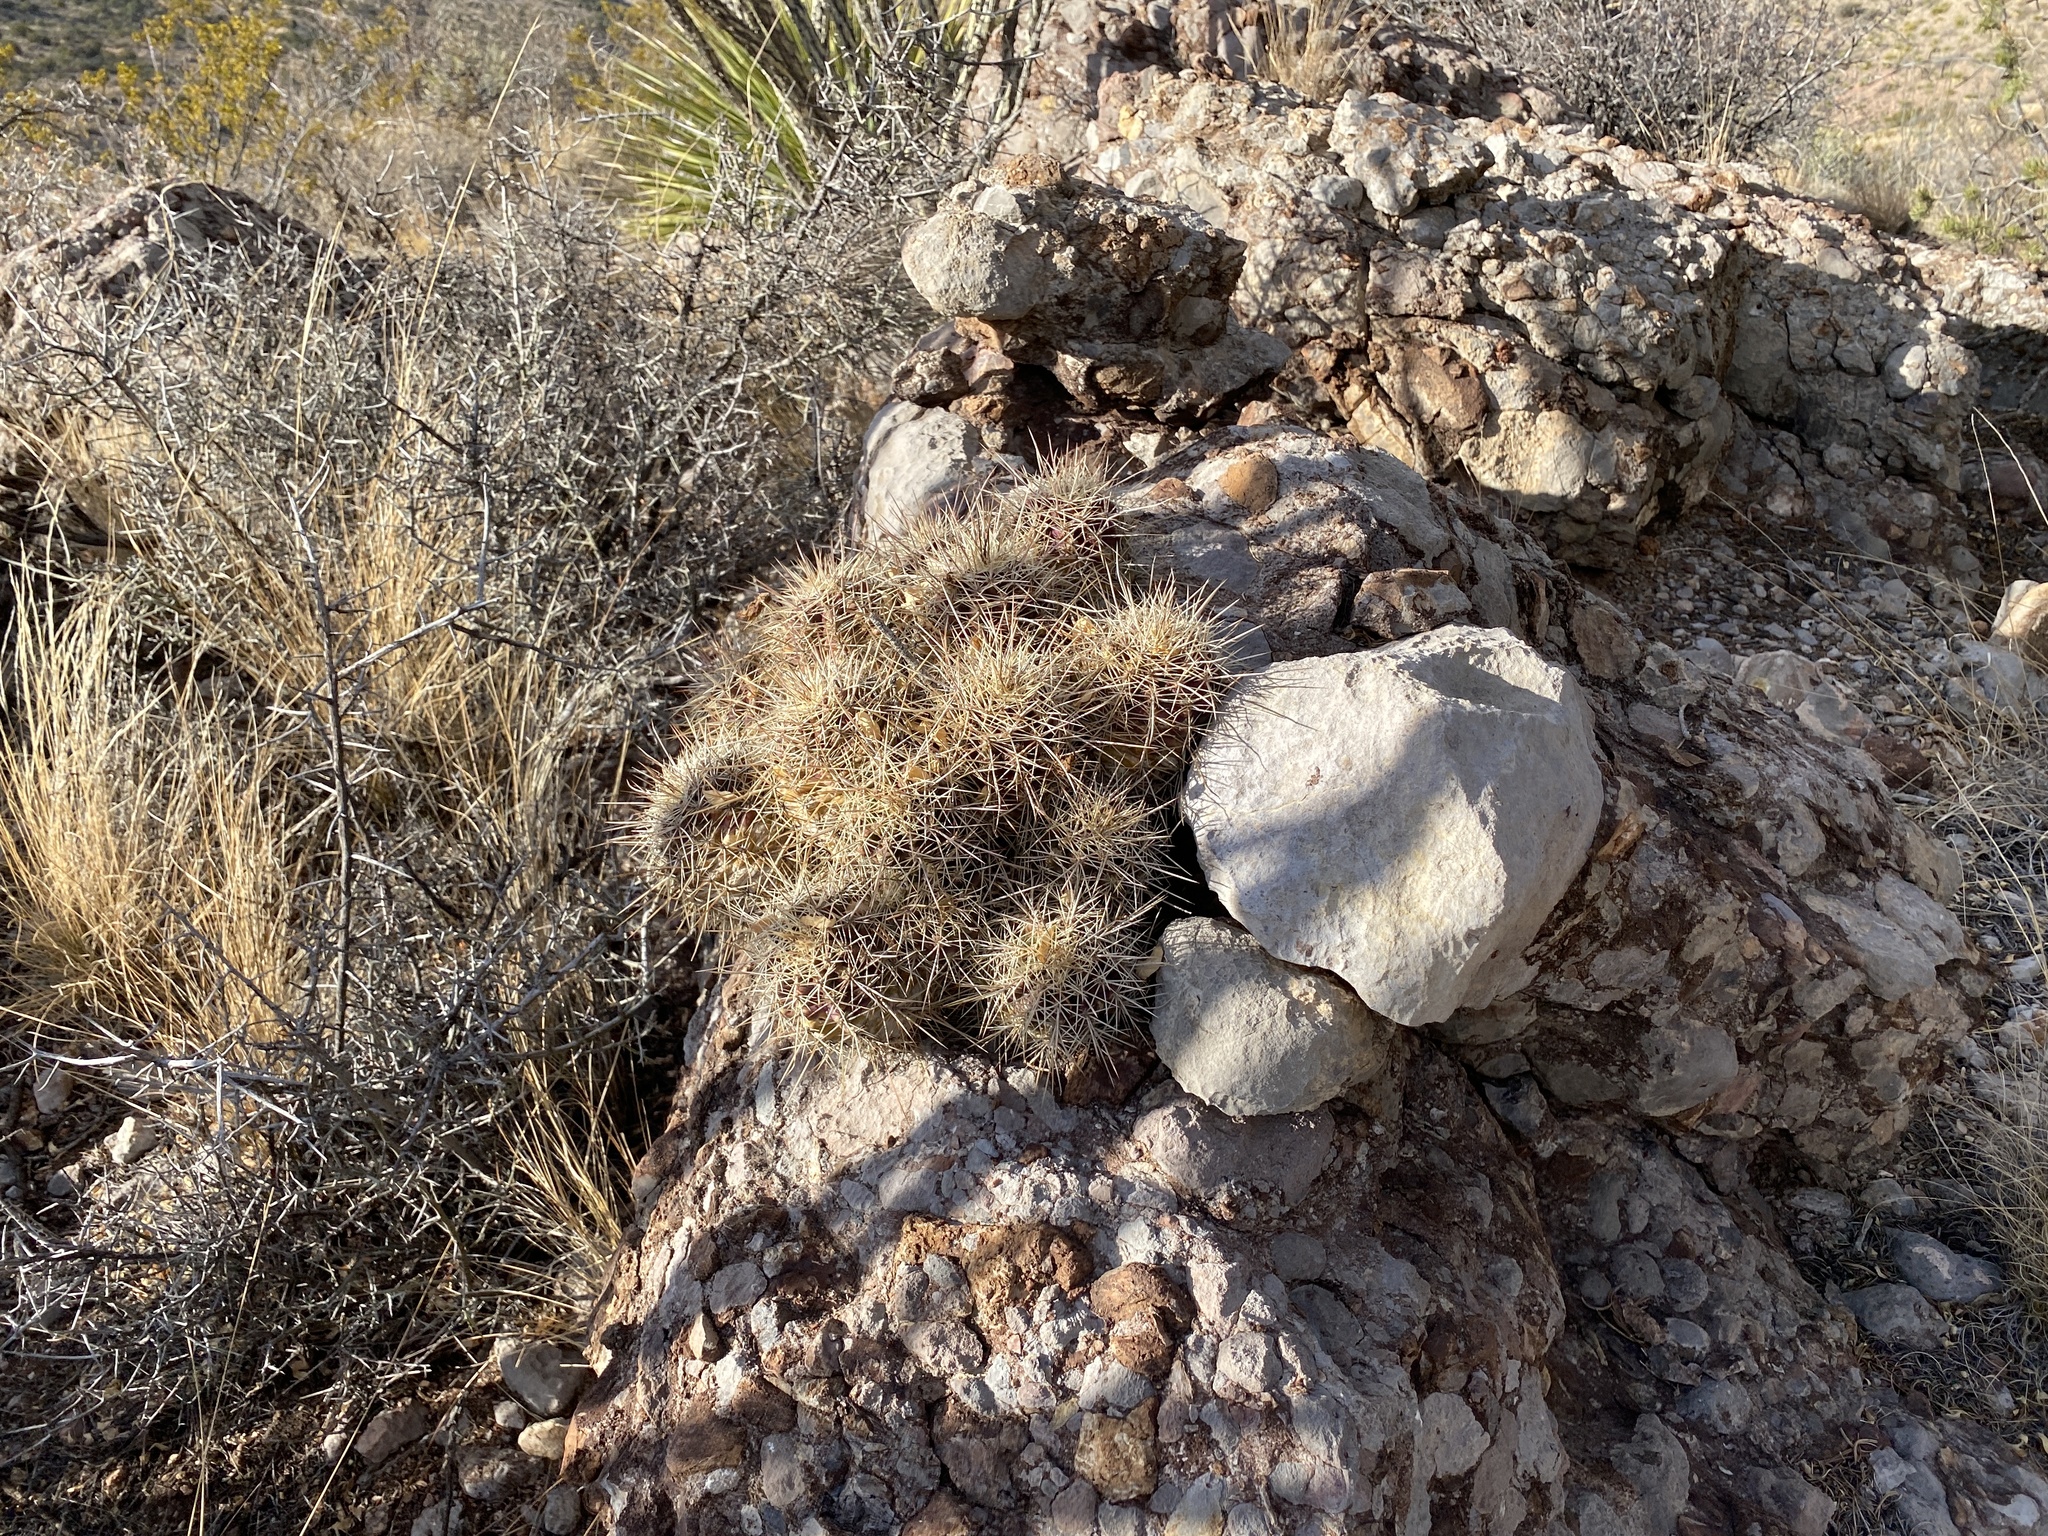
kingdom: Plantae
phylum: Tracheophyta
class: Magnoliopsida
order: Caryophyllales
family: Cactaceae
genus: Echinocereus
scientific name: Echinocereus coccineus
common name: Scarlet hedgehog cactus
